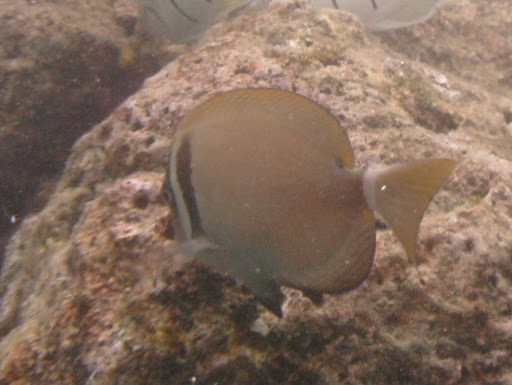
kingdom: Animalia
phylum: Chordata
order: Perciformes
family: Acanthuridae
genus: Acanthurus
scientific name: Acanthurus leucopareius
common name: Head-band surgeonfish
